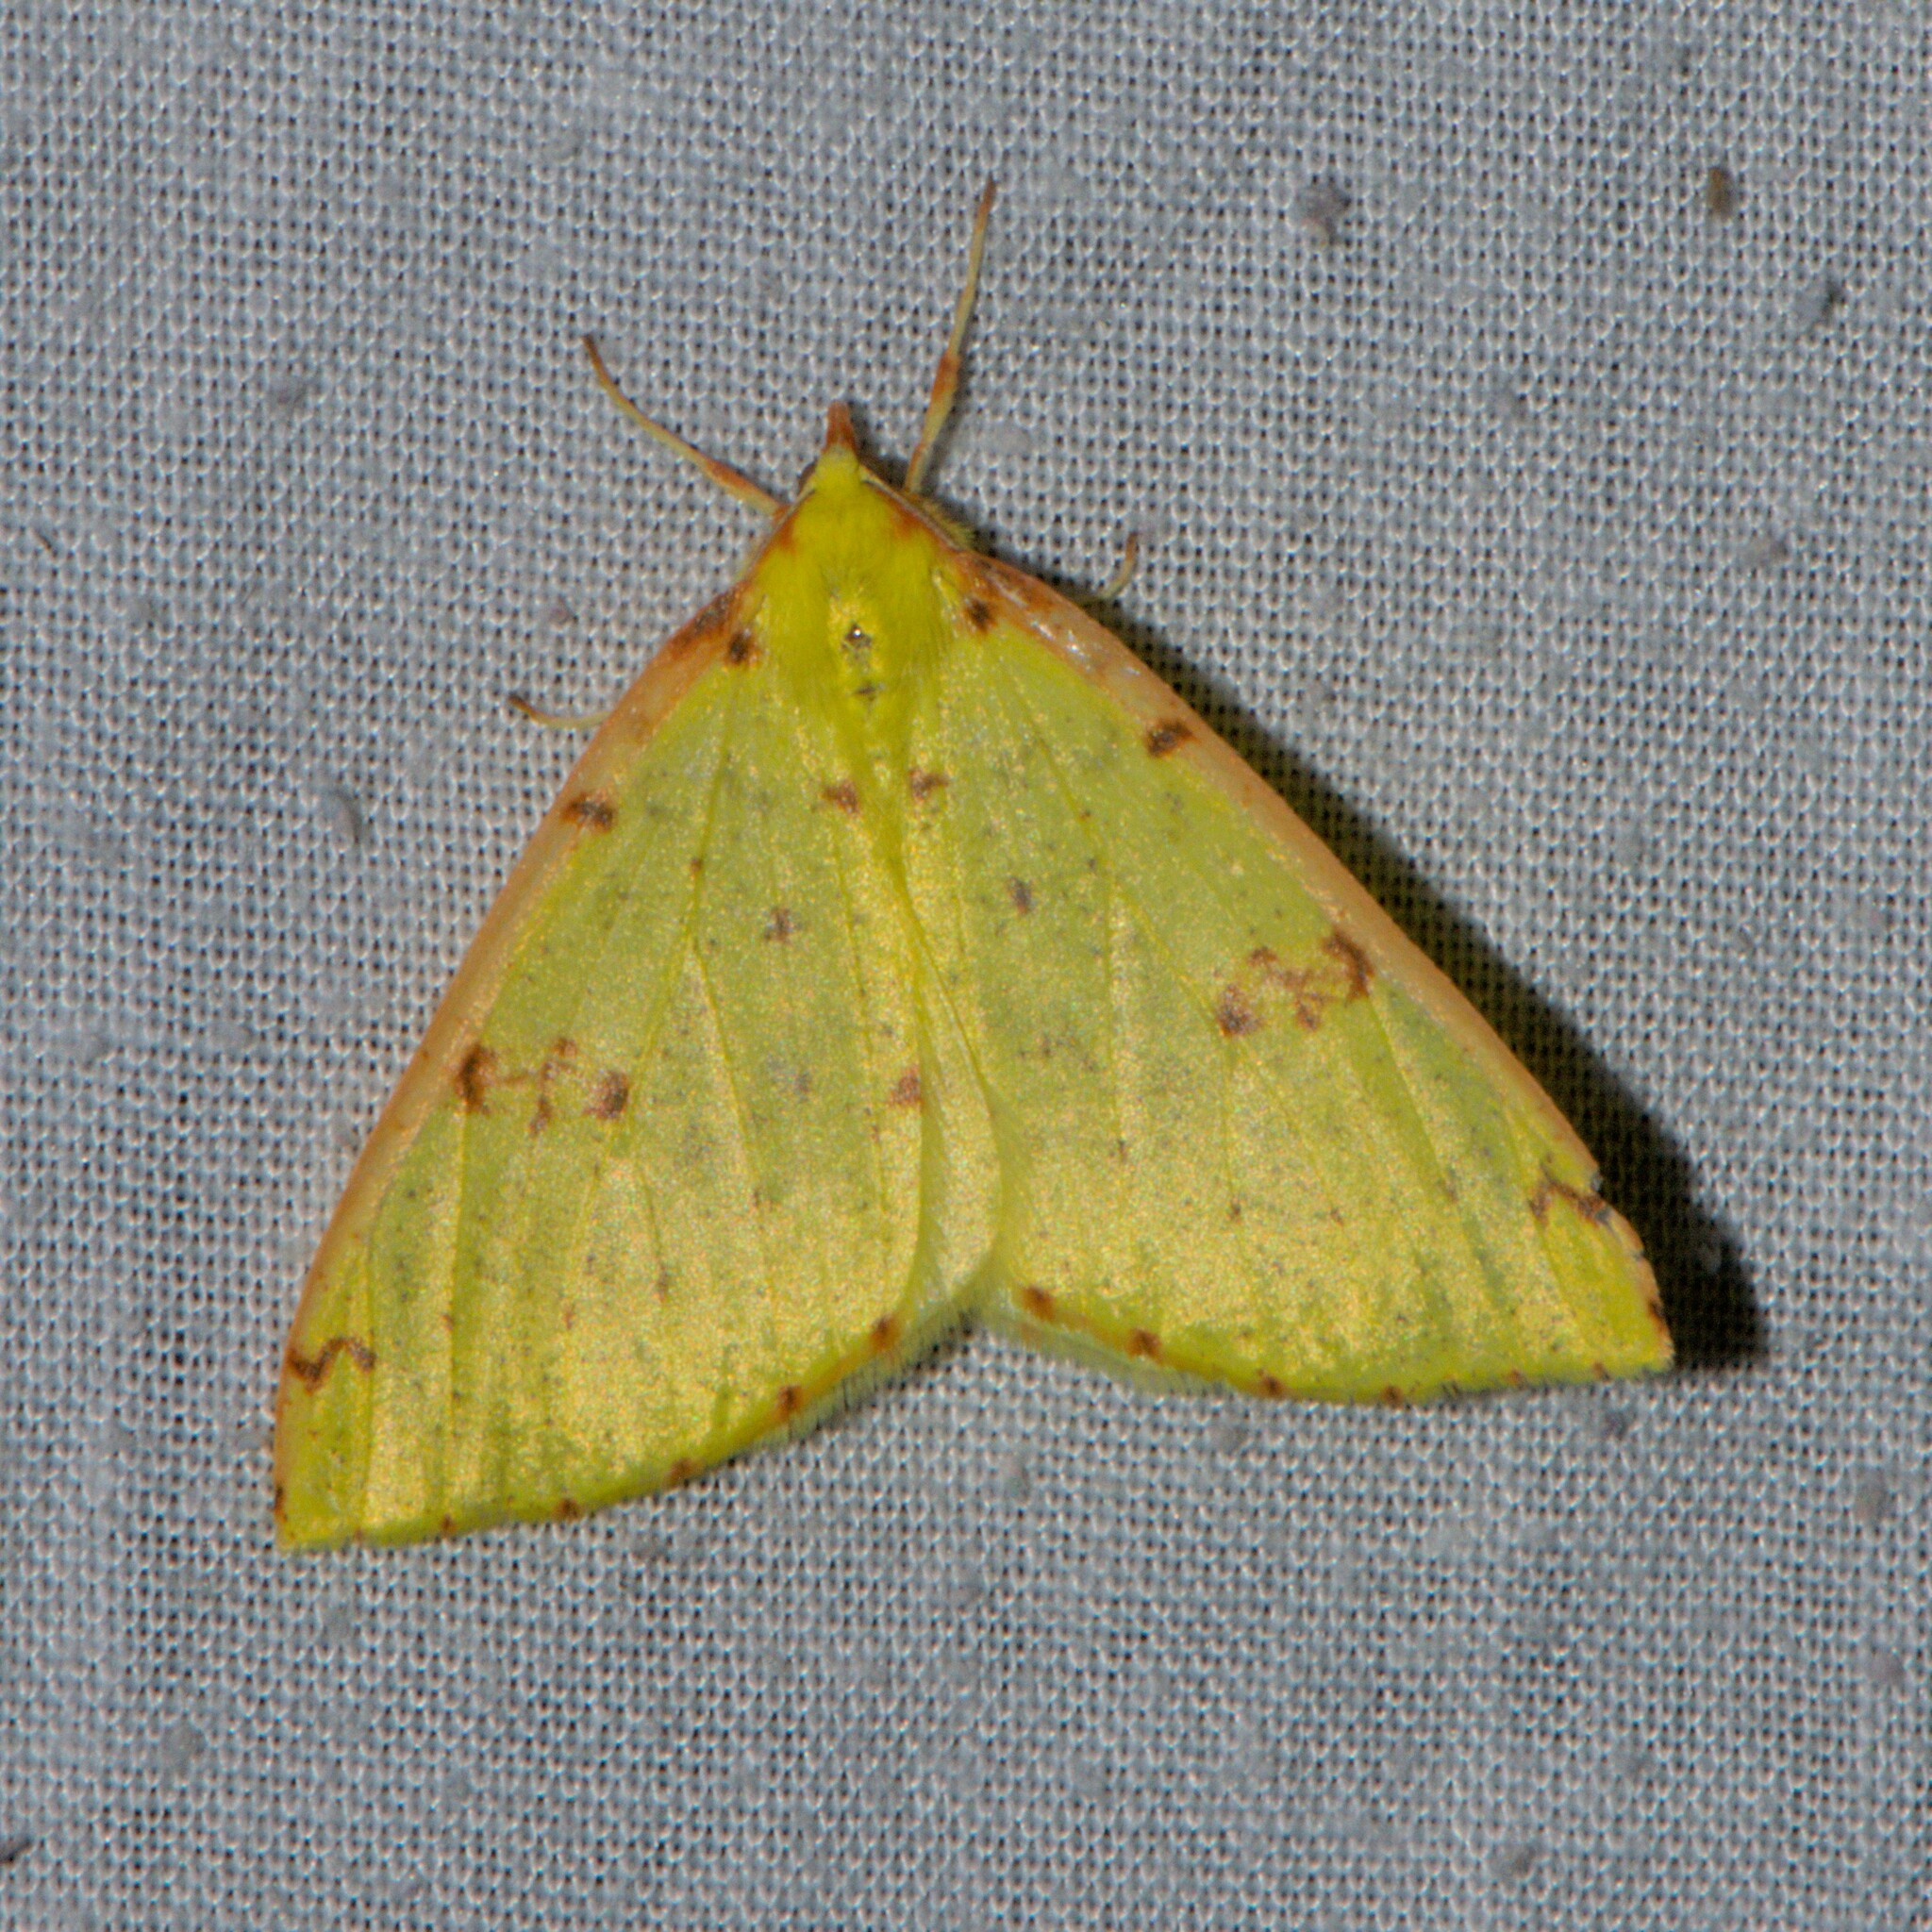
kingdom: Animalia
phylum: Arthropoda
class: Insecta
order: Lepidoptera
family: Geometridae
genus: Opisthograptis
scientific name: Opisthograptis tridentifera
